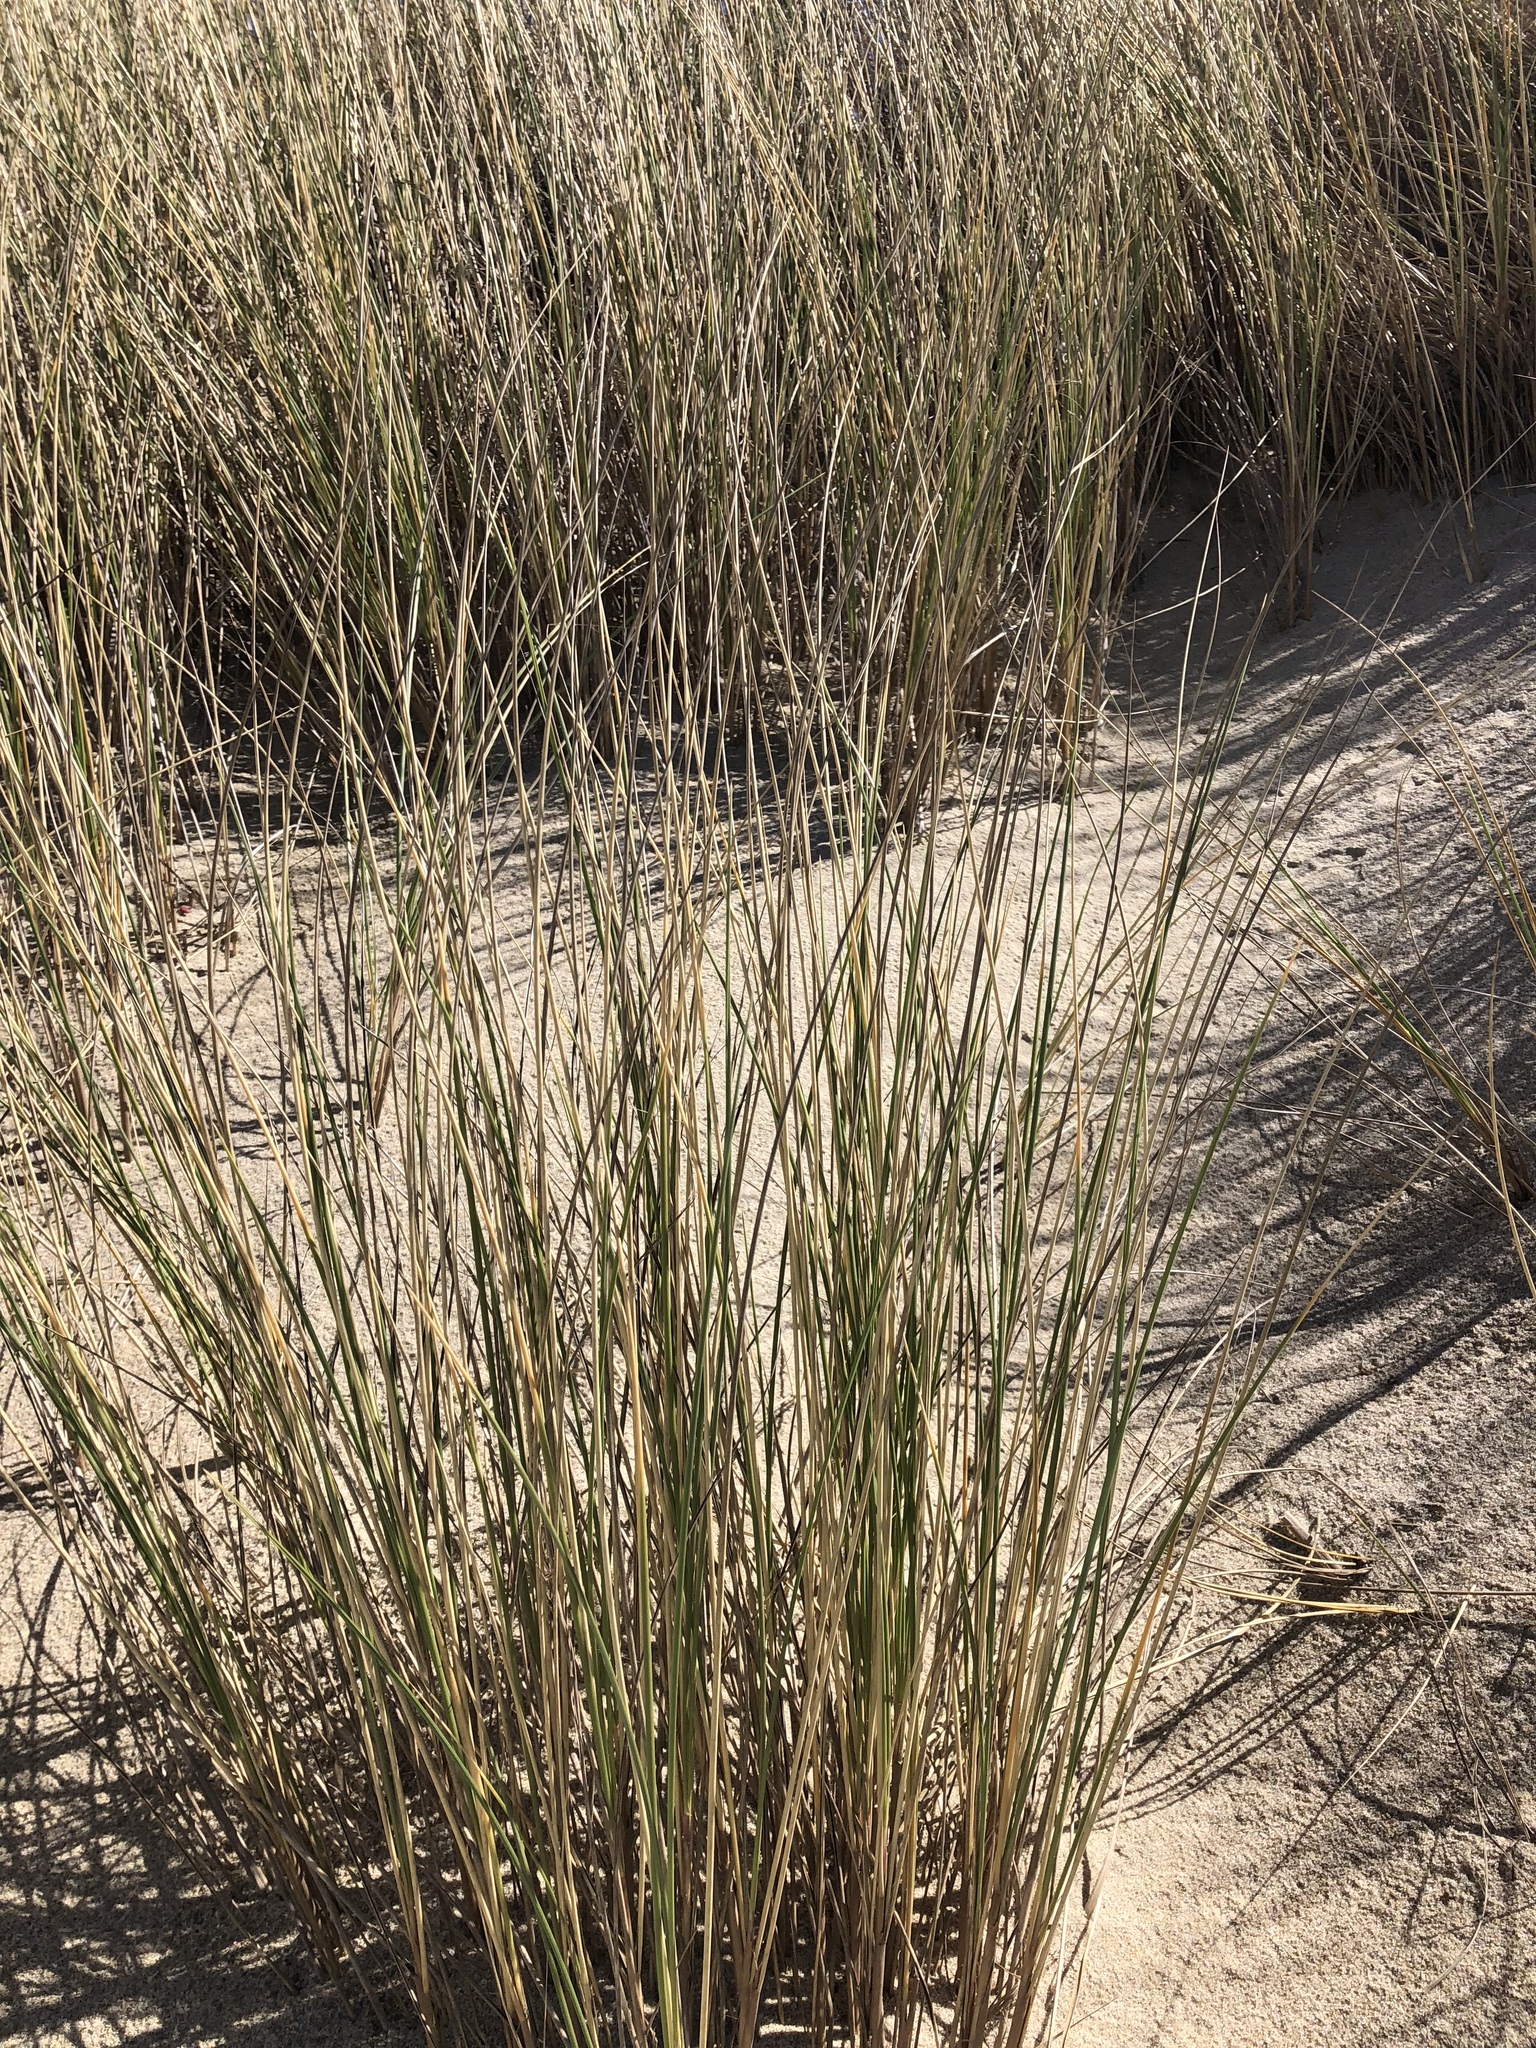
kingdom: Plantae
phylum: Tracheophyta
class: Liliopsida
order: Poales
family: Poaceae
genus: Calamagrostis
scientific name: Calamagrostis arenaria
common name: European beachgrass
